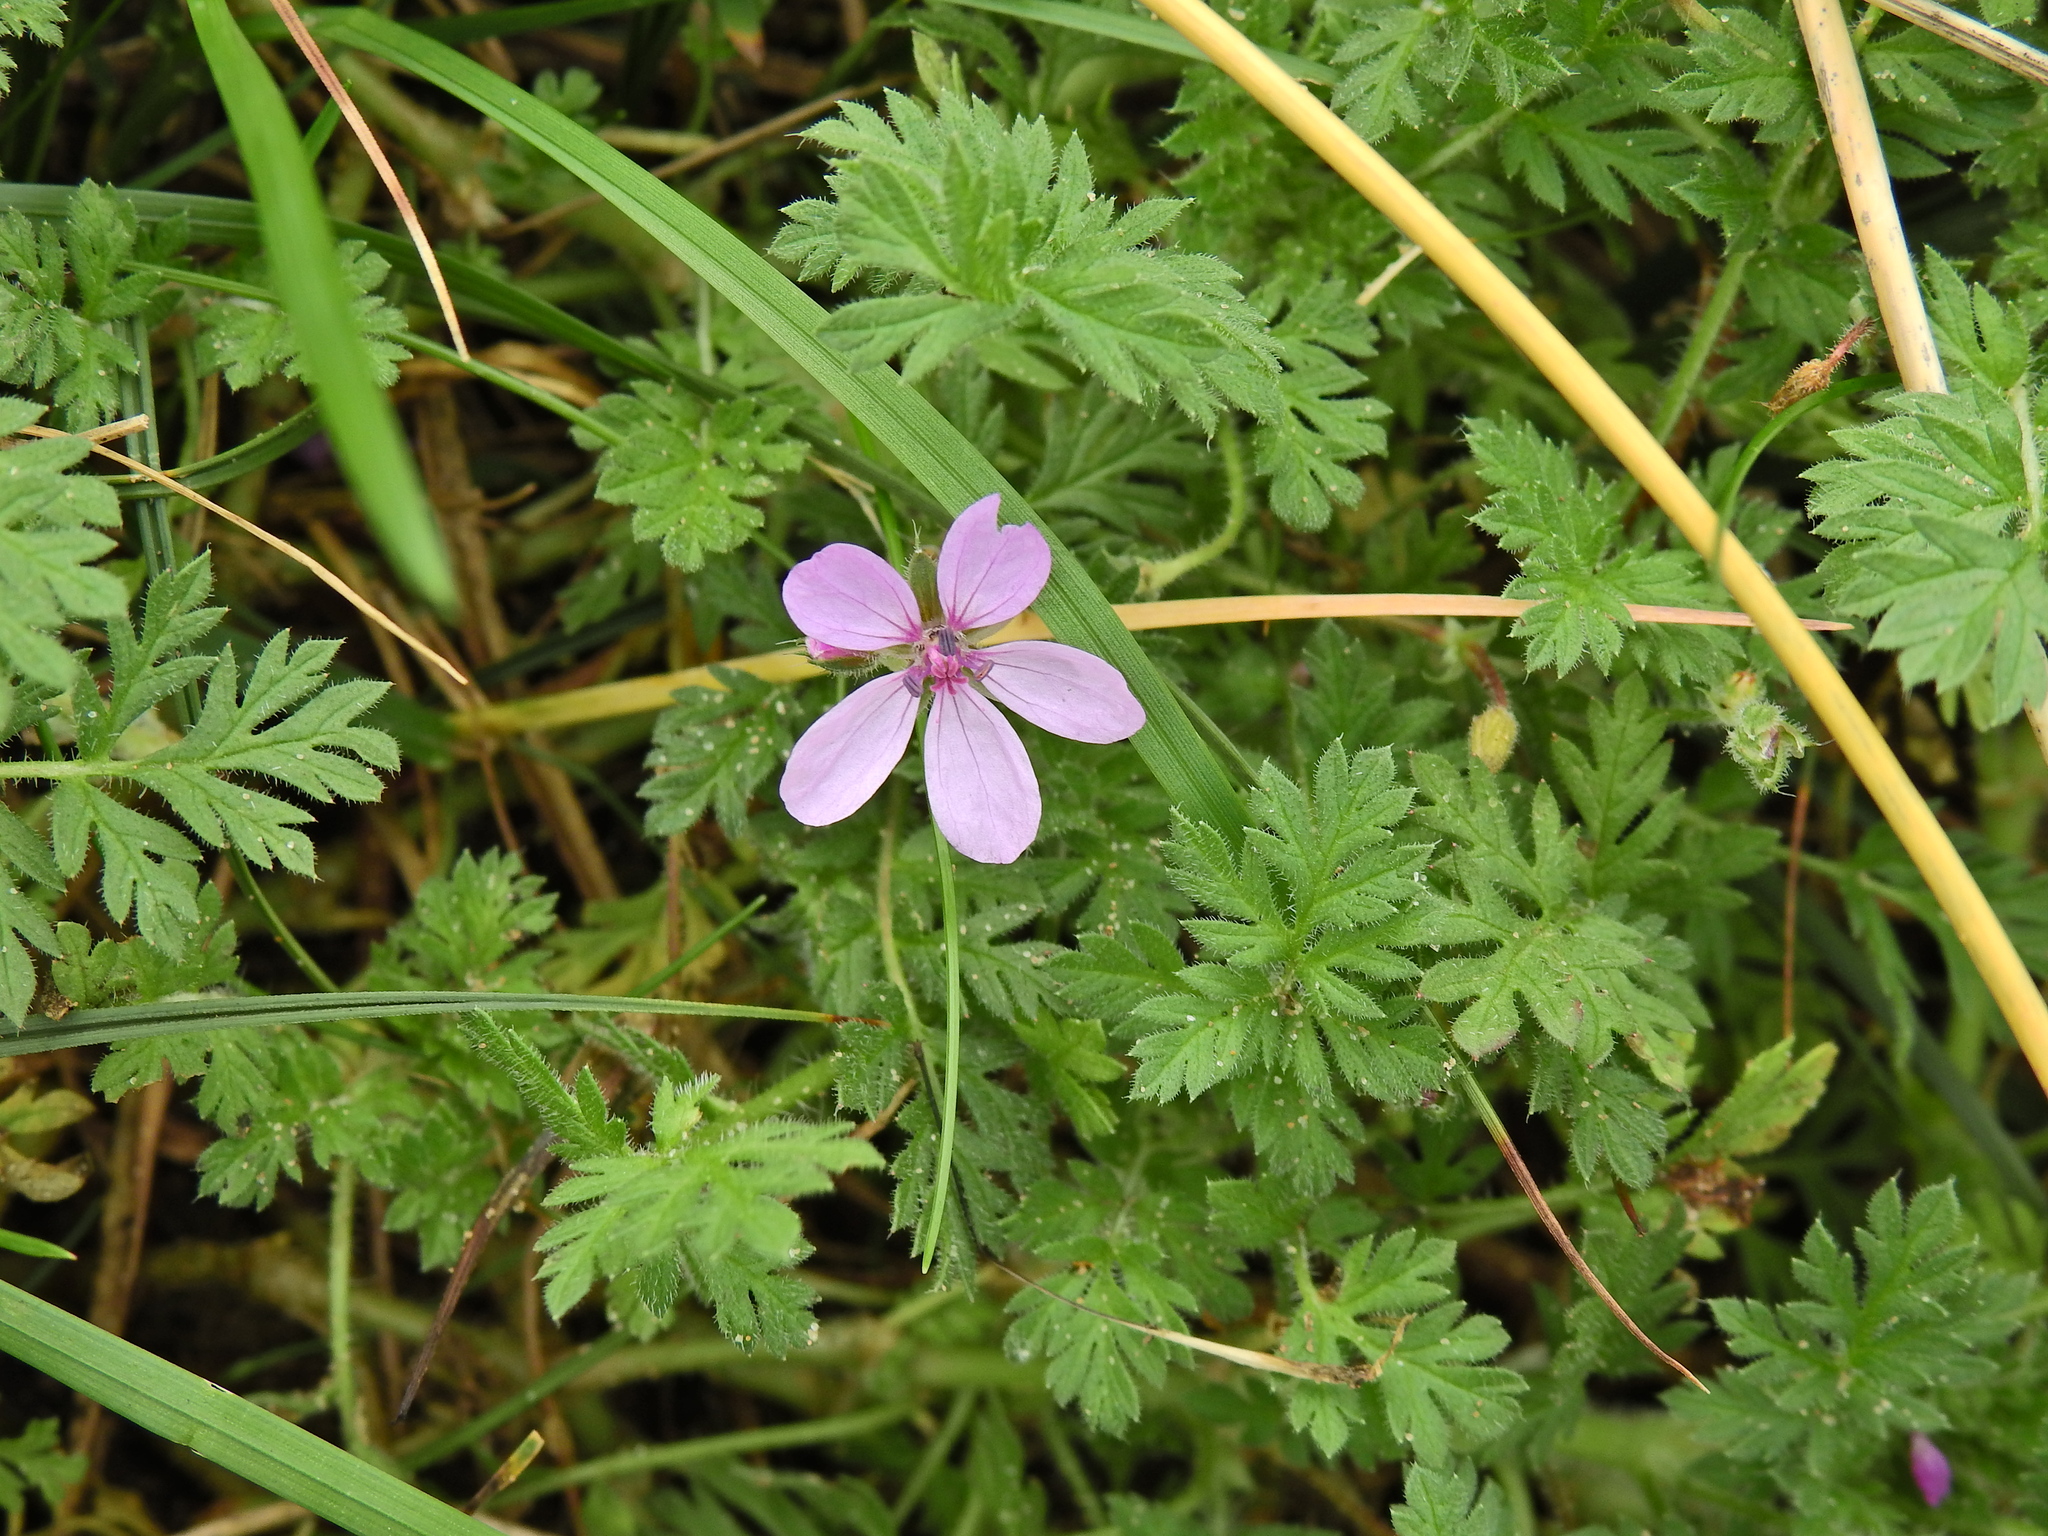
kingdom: Plantae
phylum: Tracheophyta
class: Magnoliopsida
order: Geraniales
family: Geraniaceae
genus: Erodium
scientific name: Erodium cicutarium
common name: Common stork's-bill
